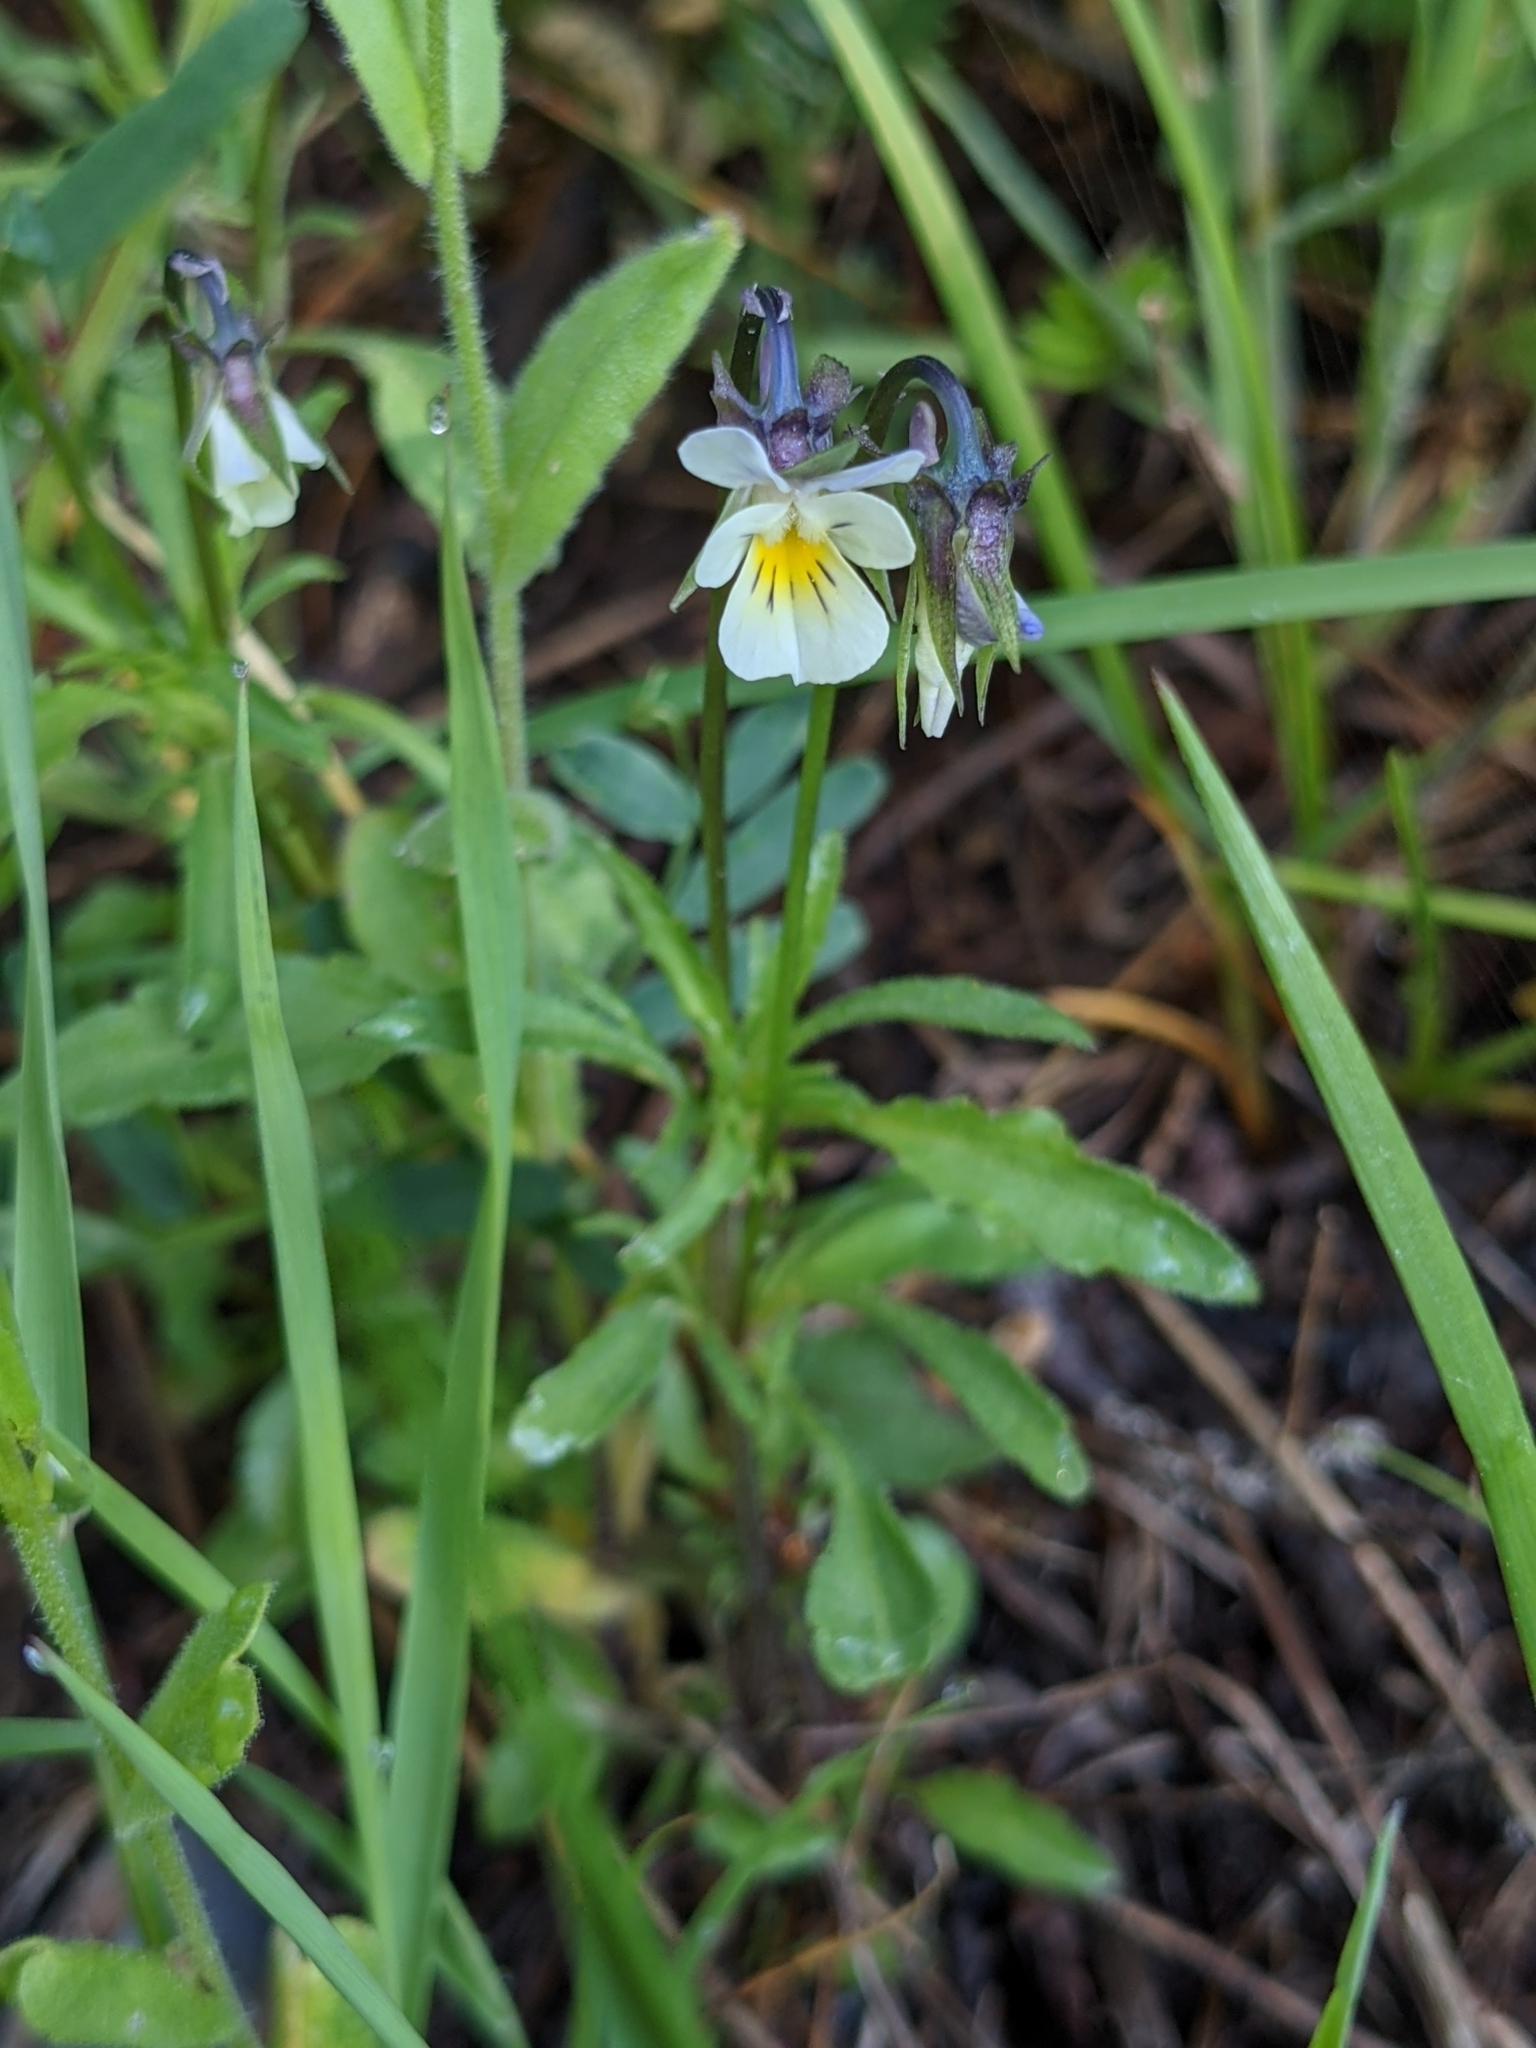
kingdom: Plantae
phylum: Tracheophyta
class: Magnoliopsida
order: Malpighiales
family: Violaceae
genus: Viola
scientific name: Viola arvensis
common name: Field pansy
